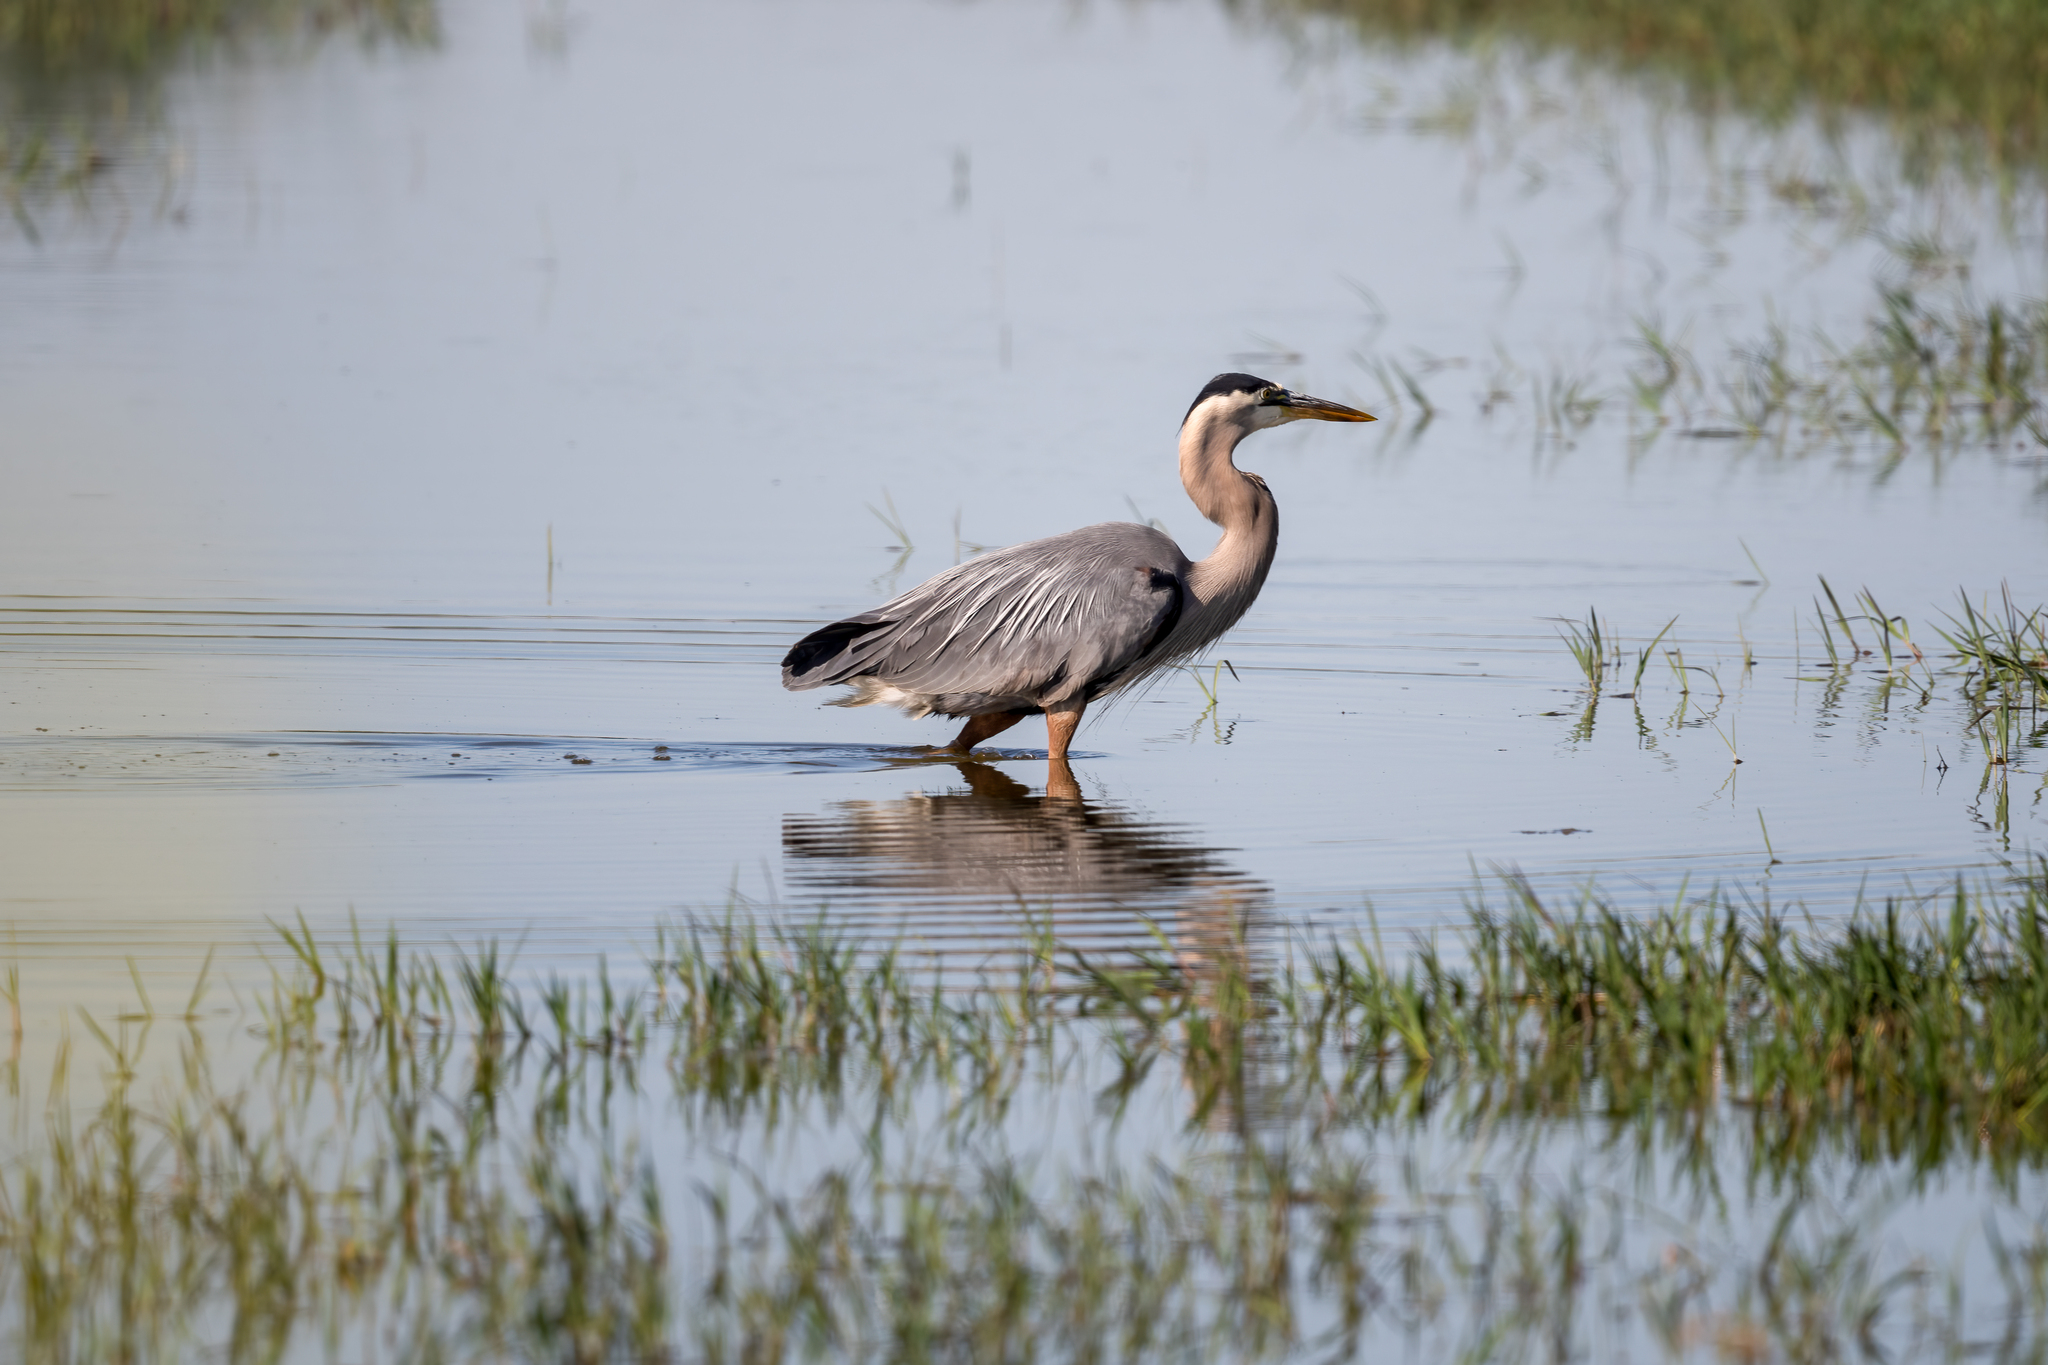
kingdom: Animalia
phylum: Chordata
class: Aves
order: Pelecaniformes
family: Ardeidae
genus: Ardea
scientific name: Ardea herodias
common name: Great blue heron
